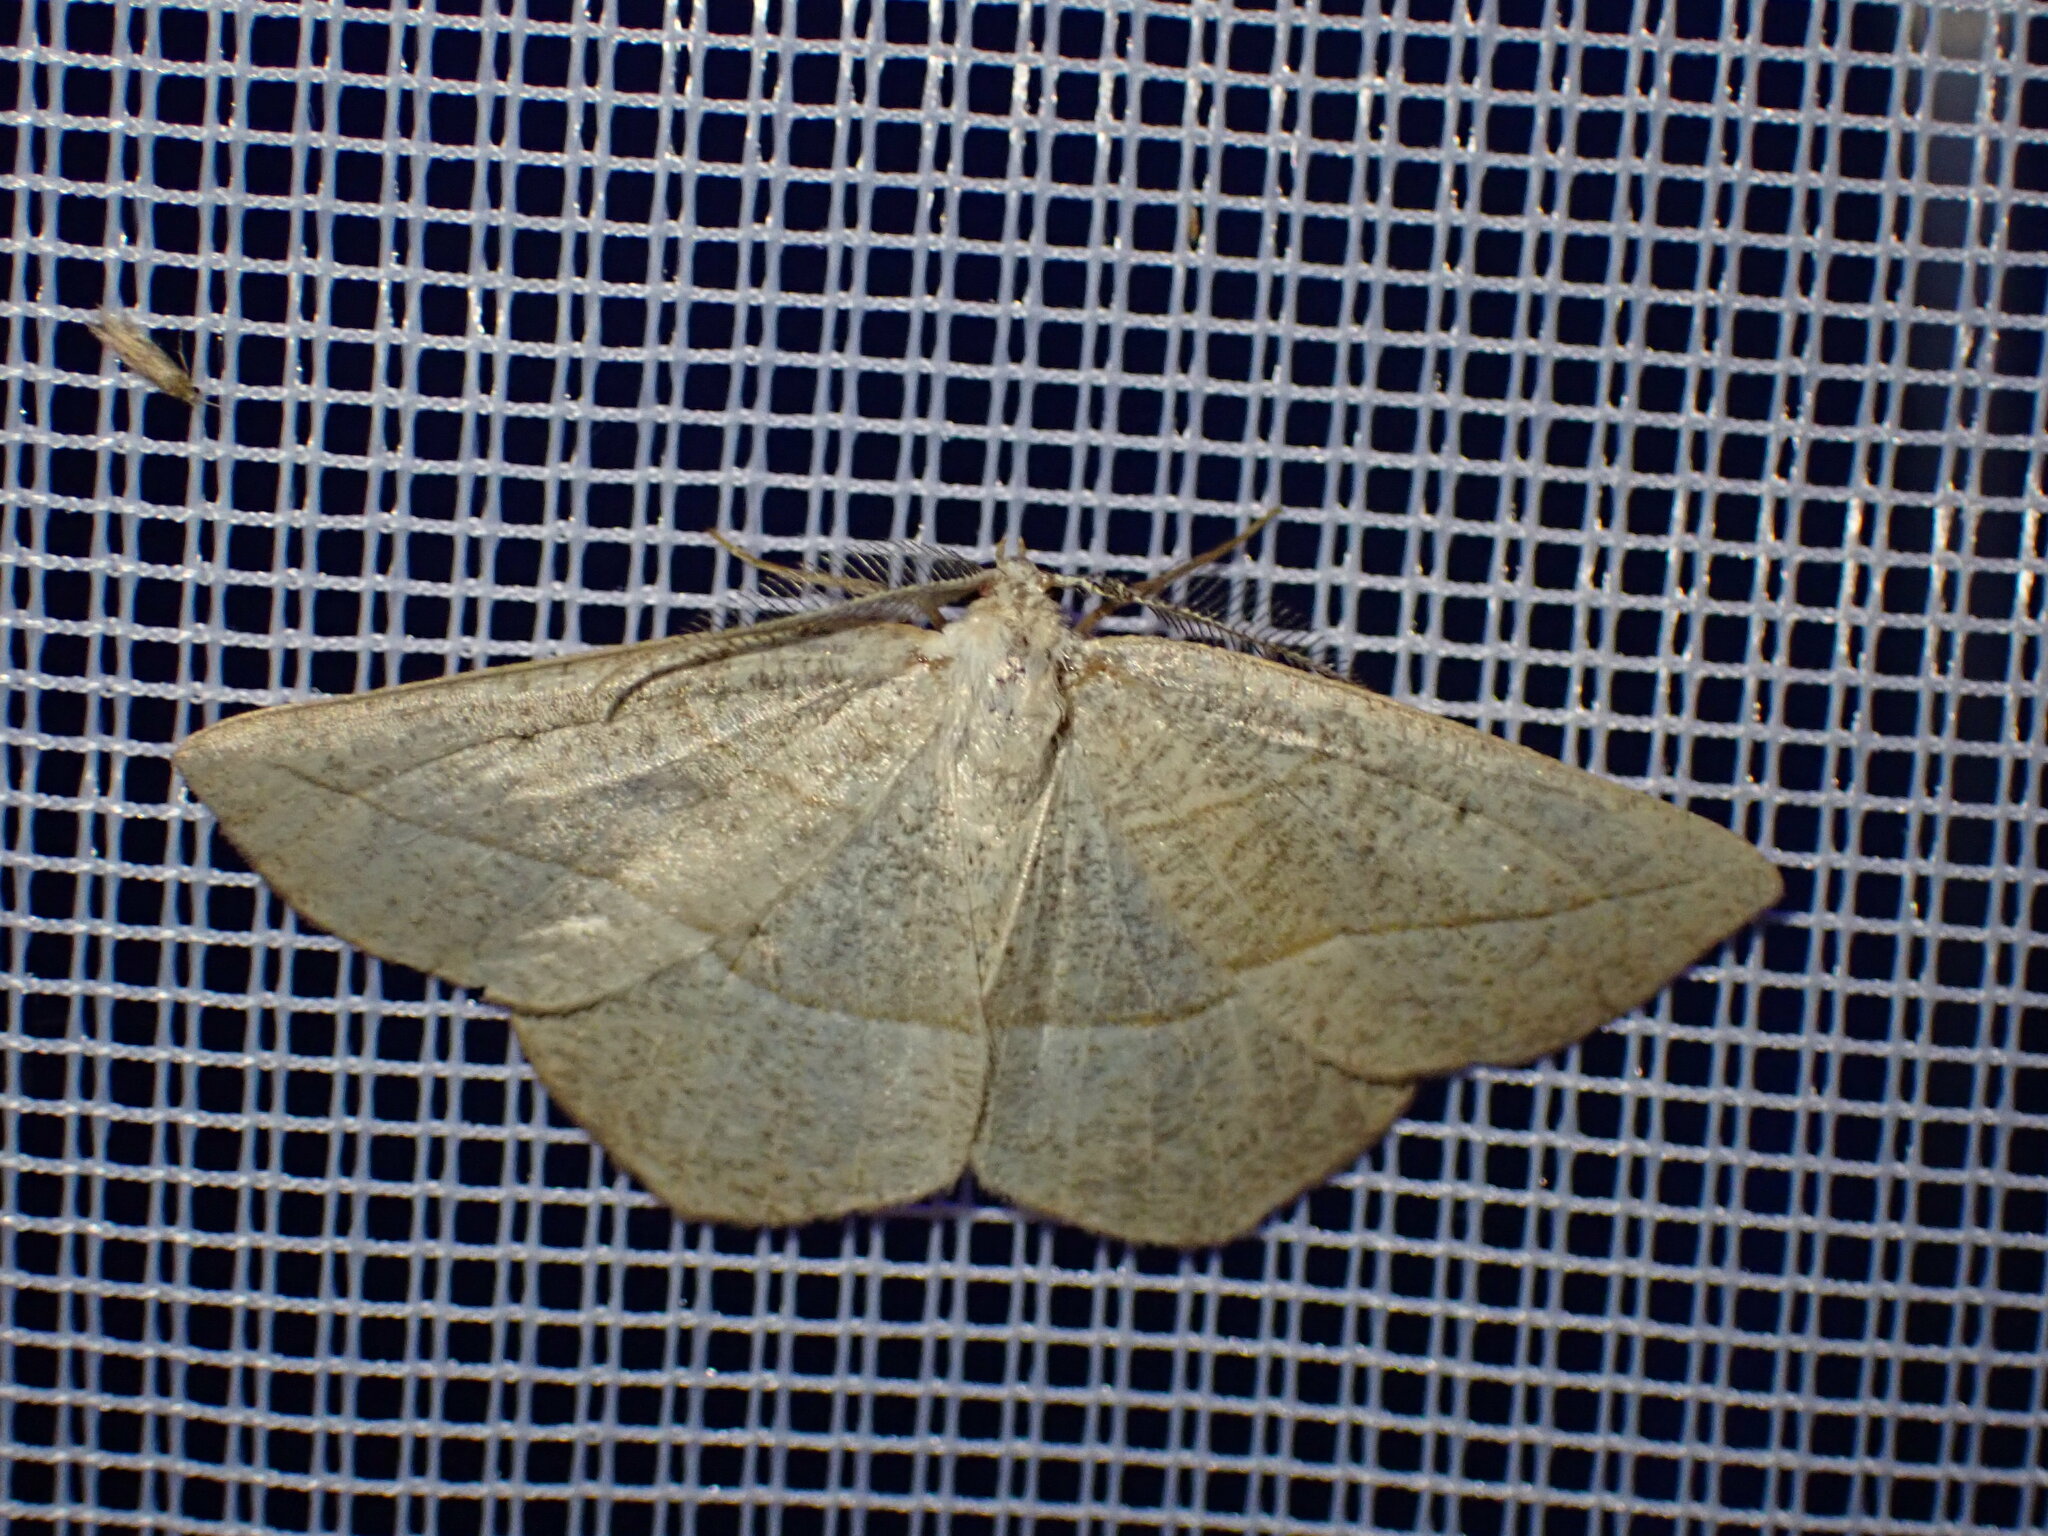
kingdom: Animalia
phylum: Arthropoda
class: Insecta
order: Lepidoptera
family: Geometridae
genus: Eusarca
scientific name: Eusarca confusaria
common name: Confused eusarca
